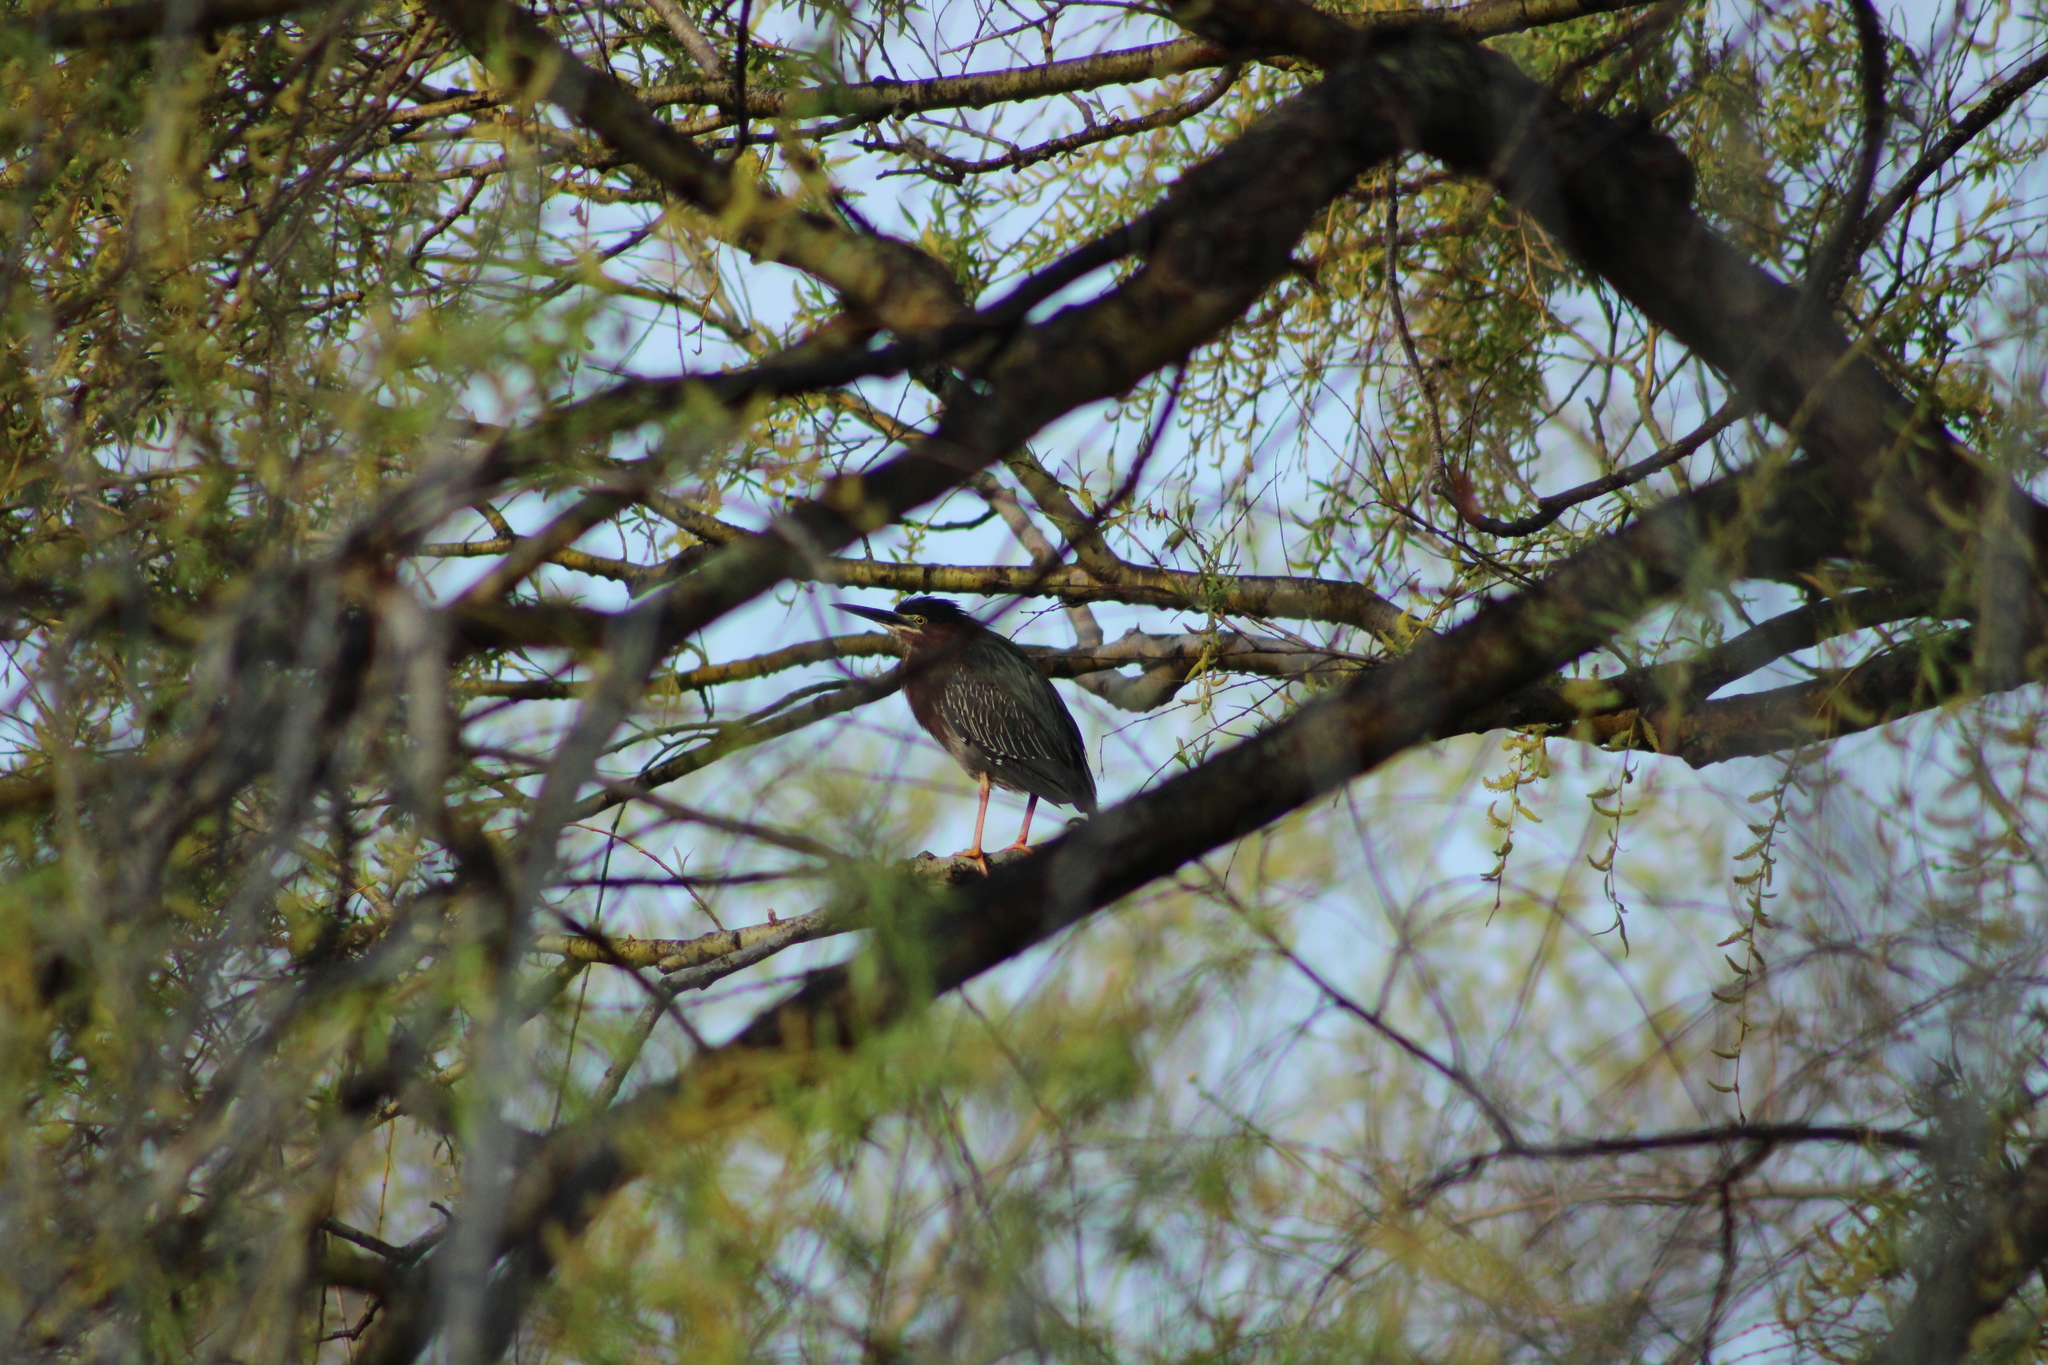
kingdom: Animalia
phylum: Chordata
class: Aves
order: Pelecaniformes
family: Ardeidae
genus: Butorides
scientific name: Butorides virescens
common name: Green heron
